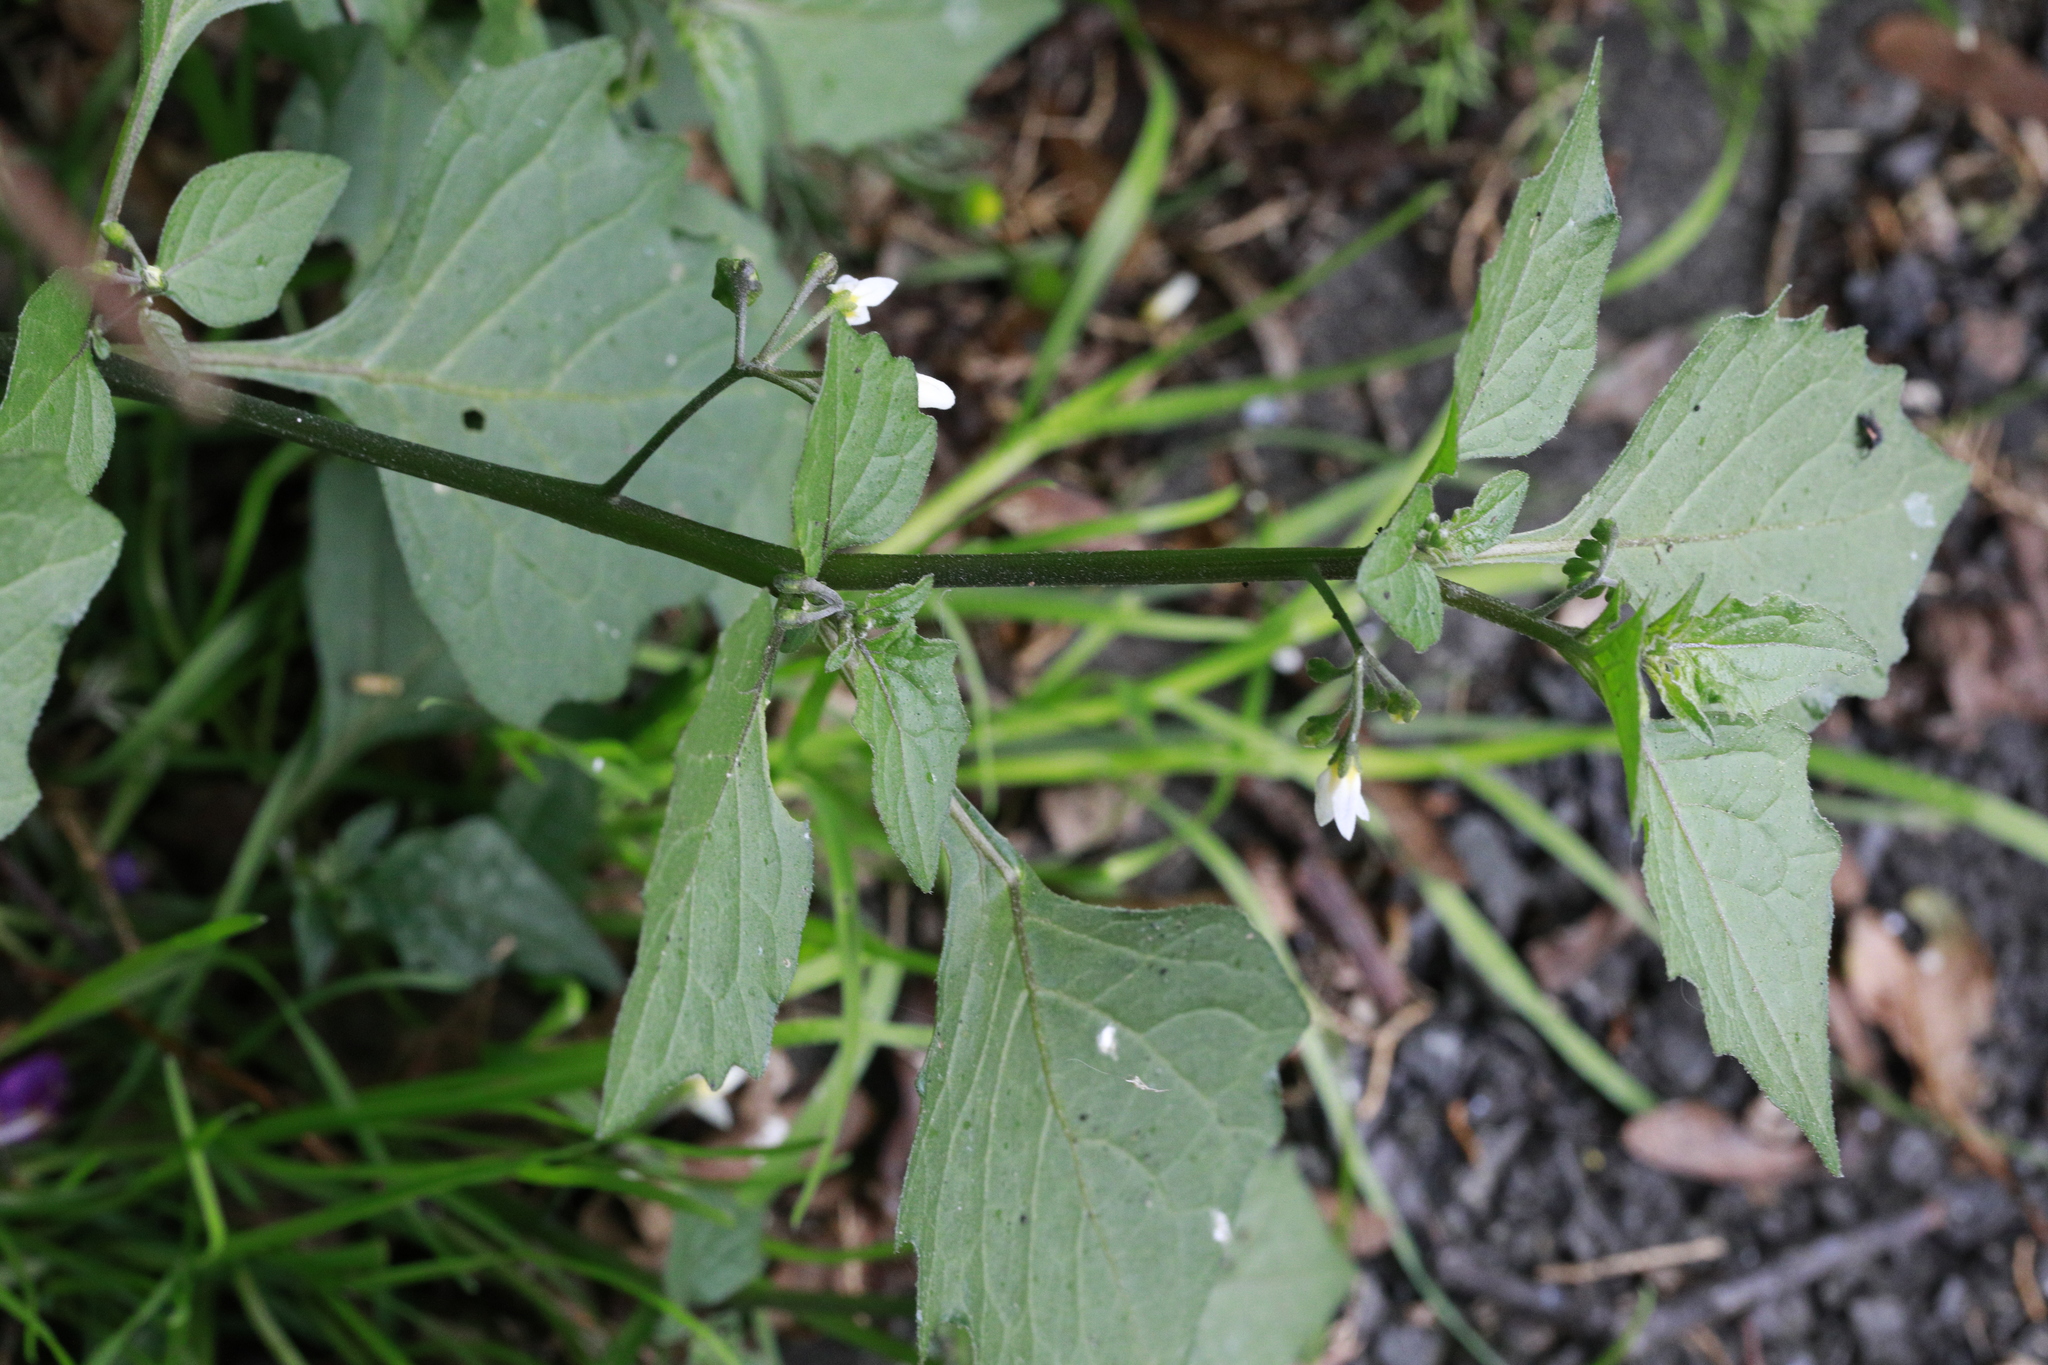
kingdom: Plantae
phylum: Tracheophyta
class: Magnoliopsida
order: Solanales
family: Solanaceae
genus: Solanum
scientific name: Solanum nigrum
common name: Black nightshade
